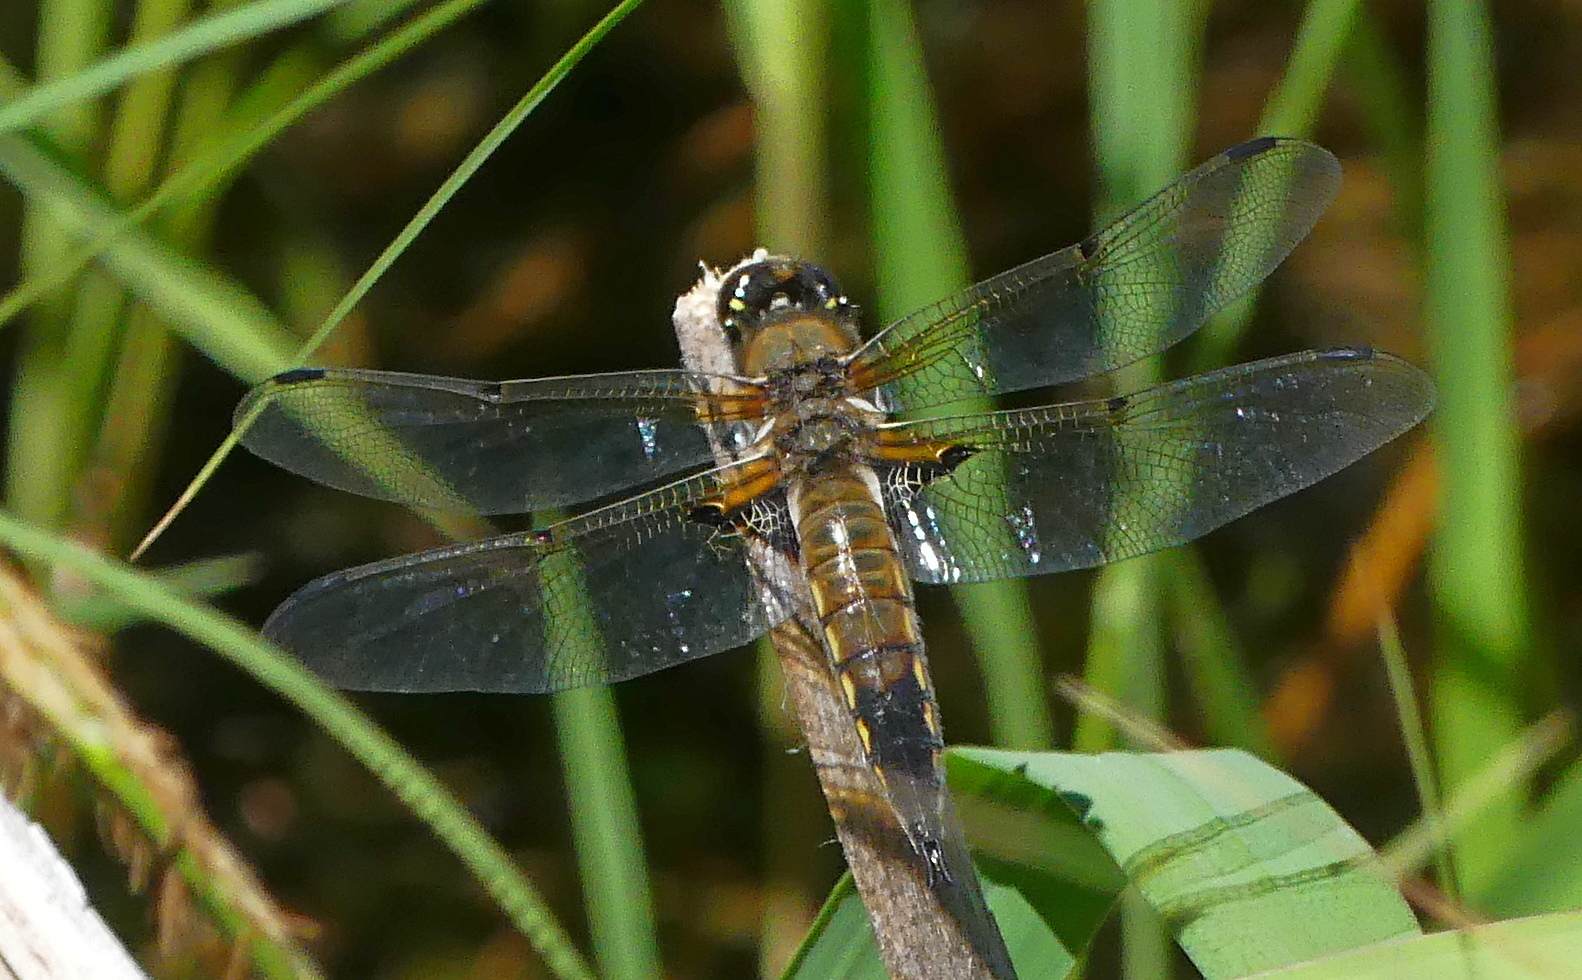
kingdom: Animalia
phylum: Arthropoda
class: Insecta
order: Odonata
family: Libellulidae
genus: Libellula
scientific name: Libellula quadrimaculata
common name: Four-spotted chaser
